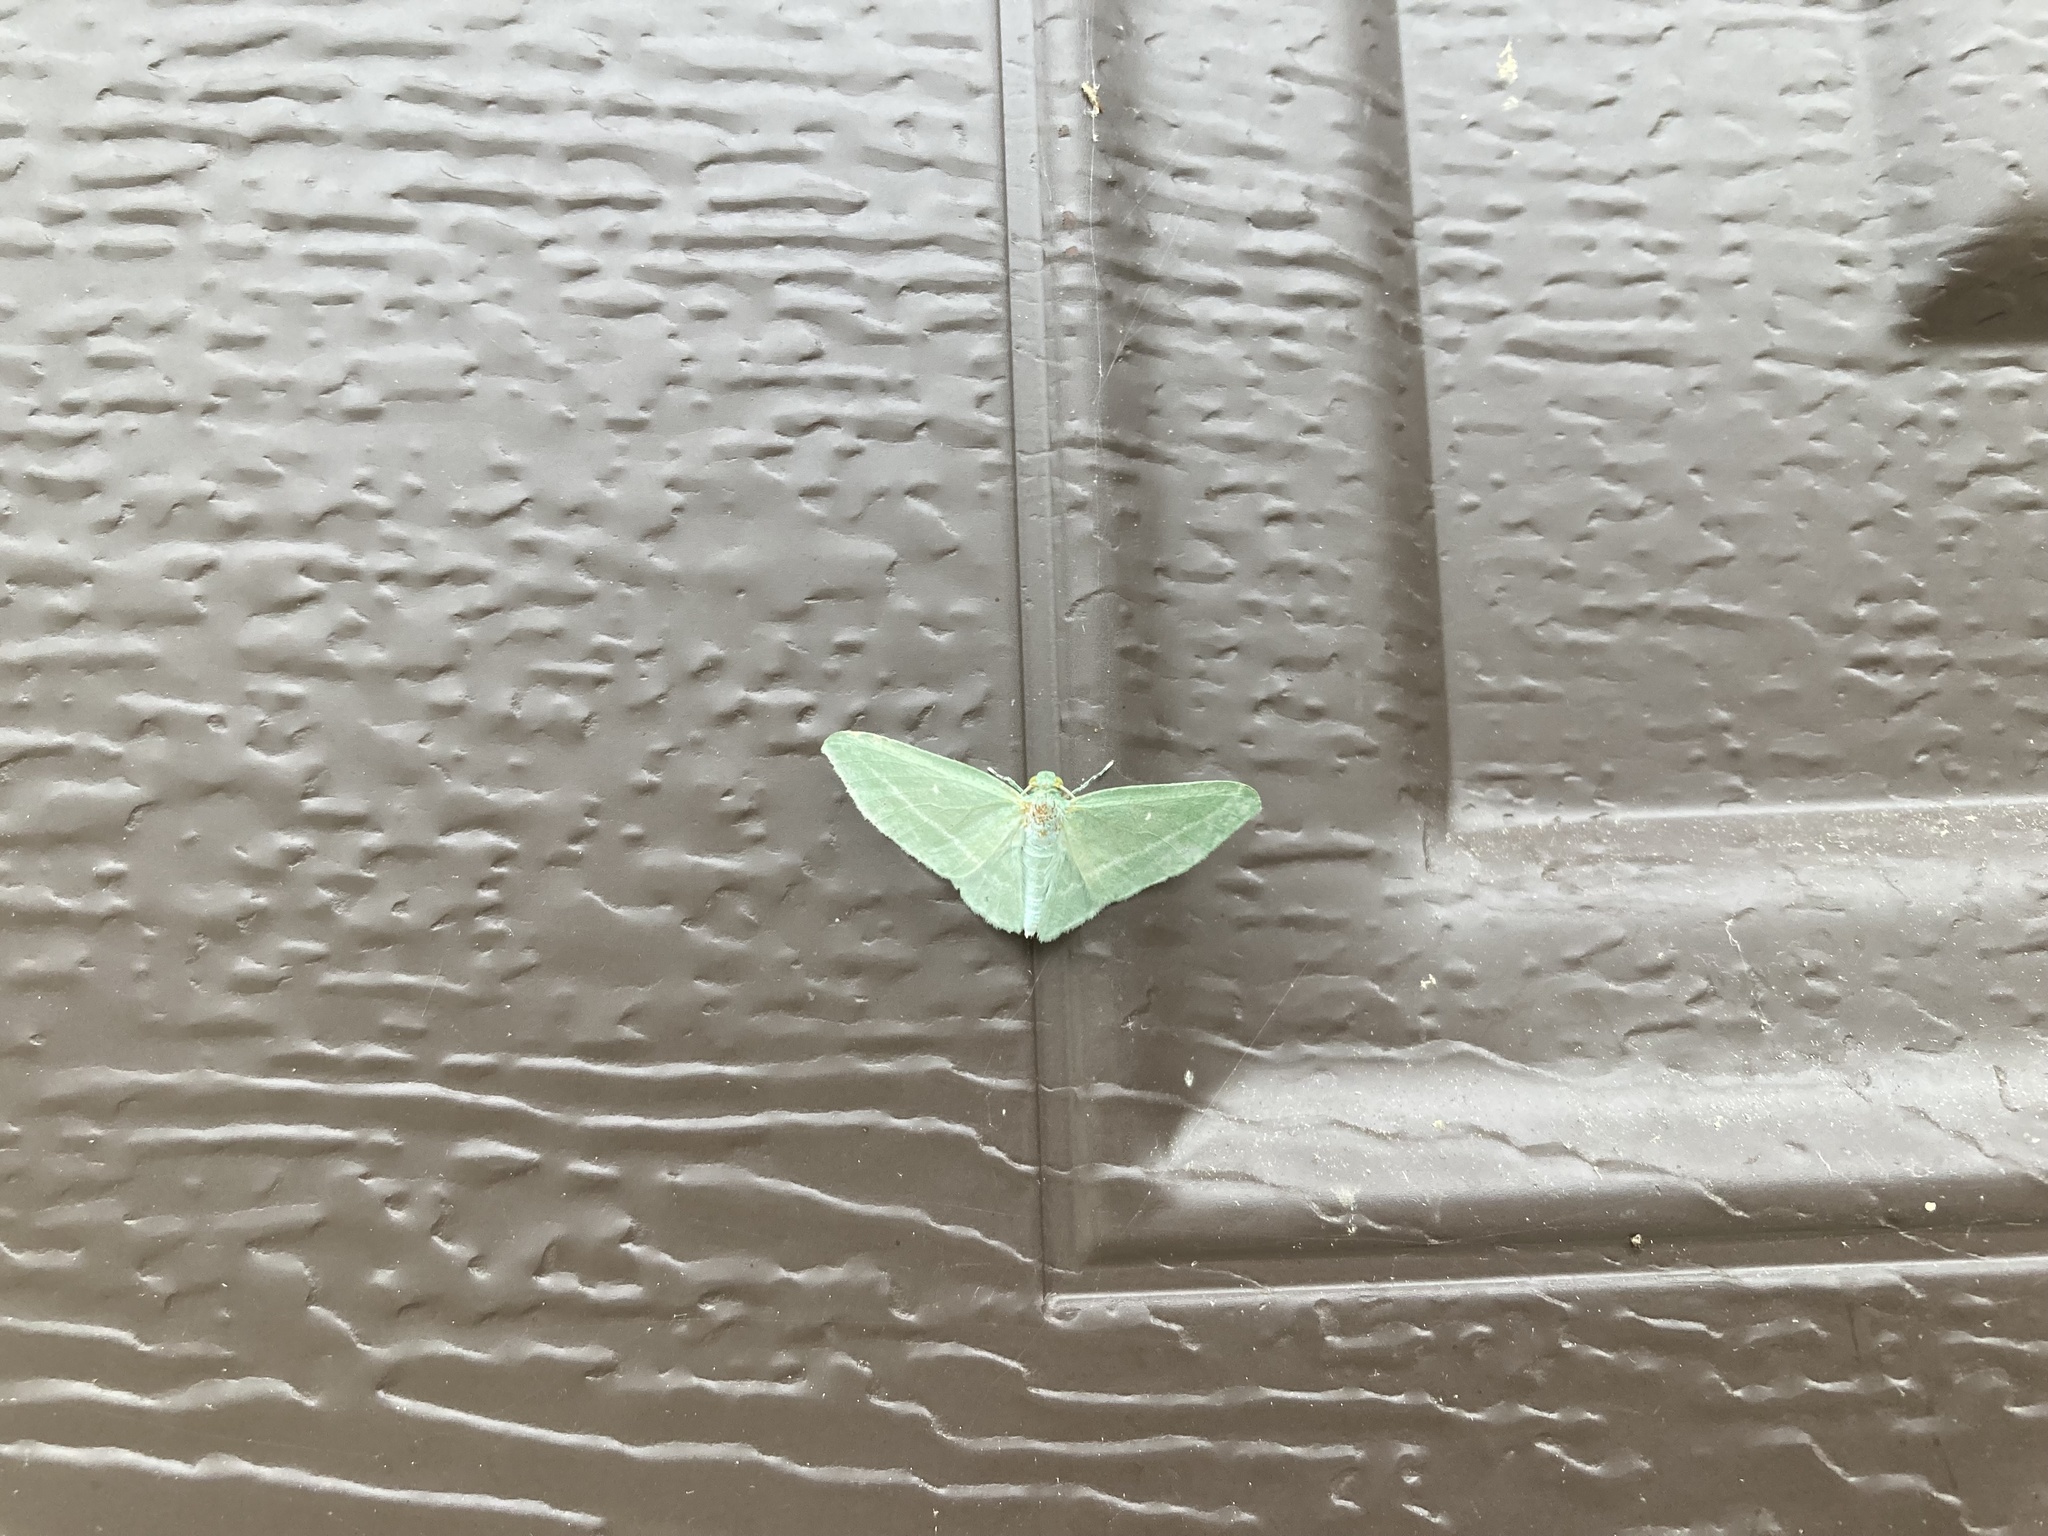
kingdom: Animalia
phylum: Arthropoda
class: Insecta
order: Lepidoptera
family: Geometridae
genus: Dyspteris
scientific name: Dyspteris abortivaria
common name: Bad-wing
